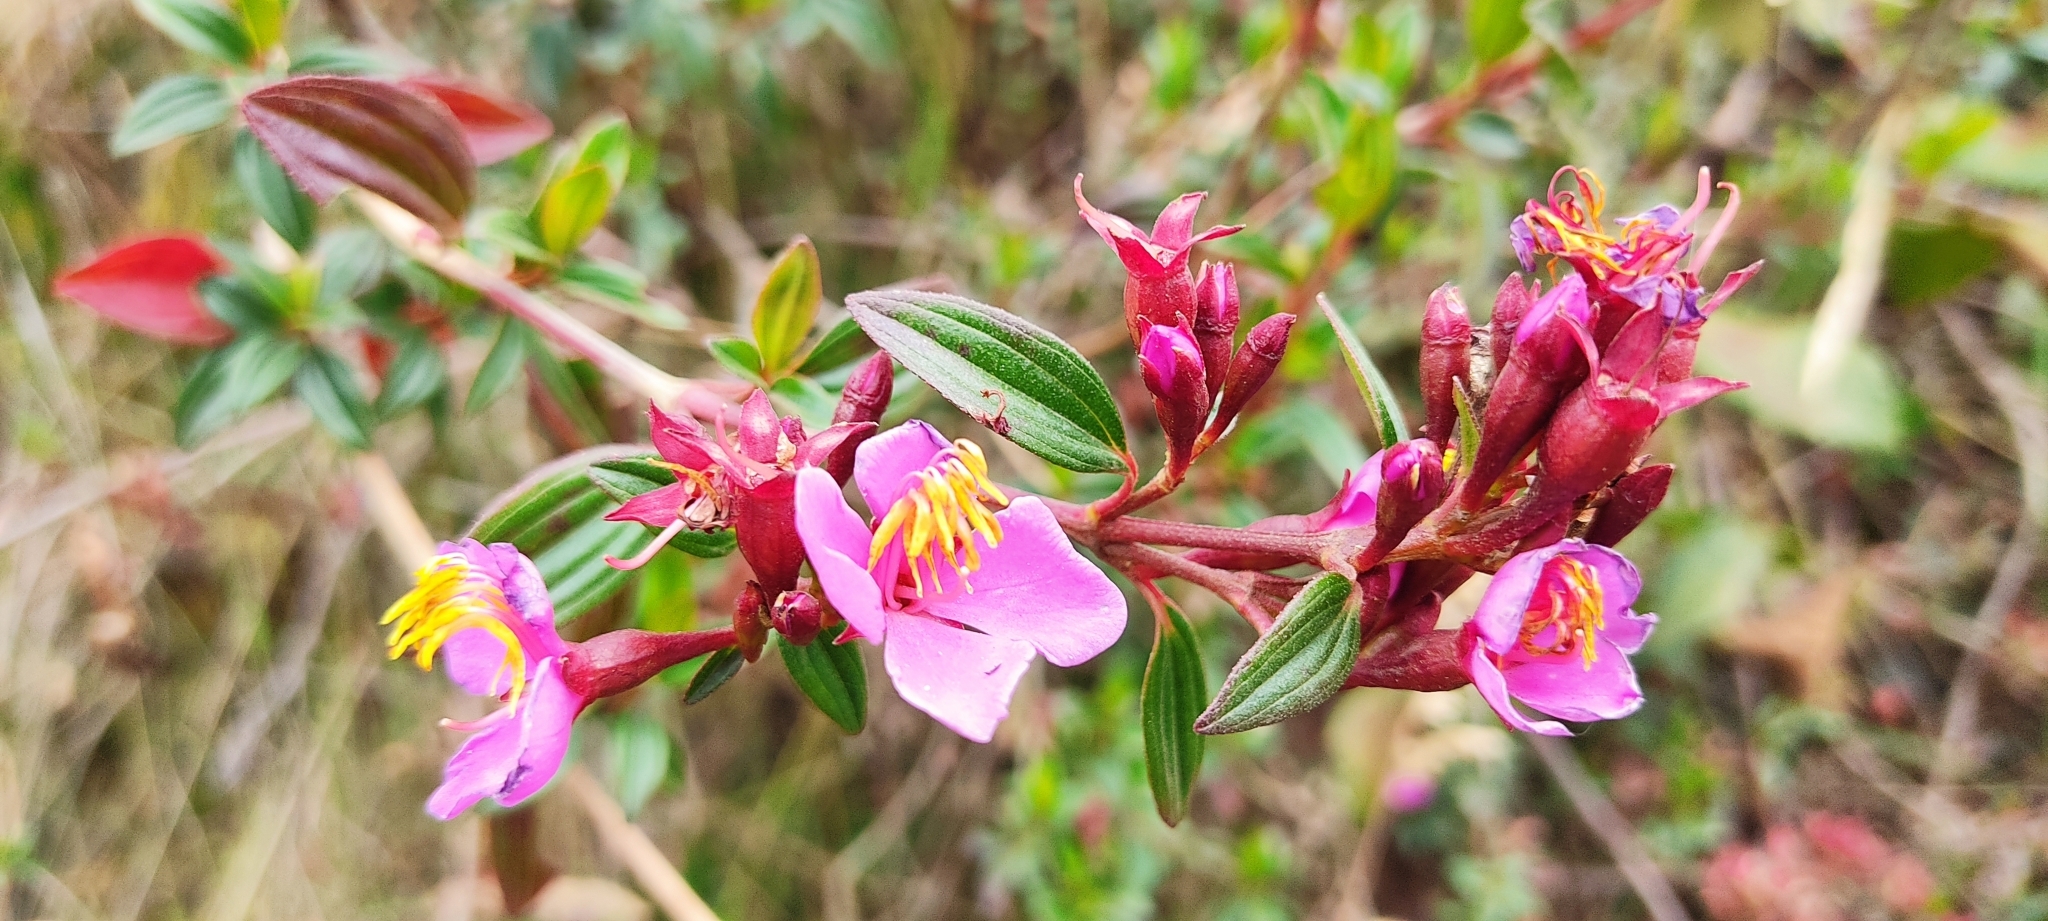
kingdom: Plantae
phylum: Tracheophyta
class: Magnoliopsida
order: Myrtales
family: Melastomataceae
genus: Monochaetum
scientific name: Monochaetum myrtoideum
